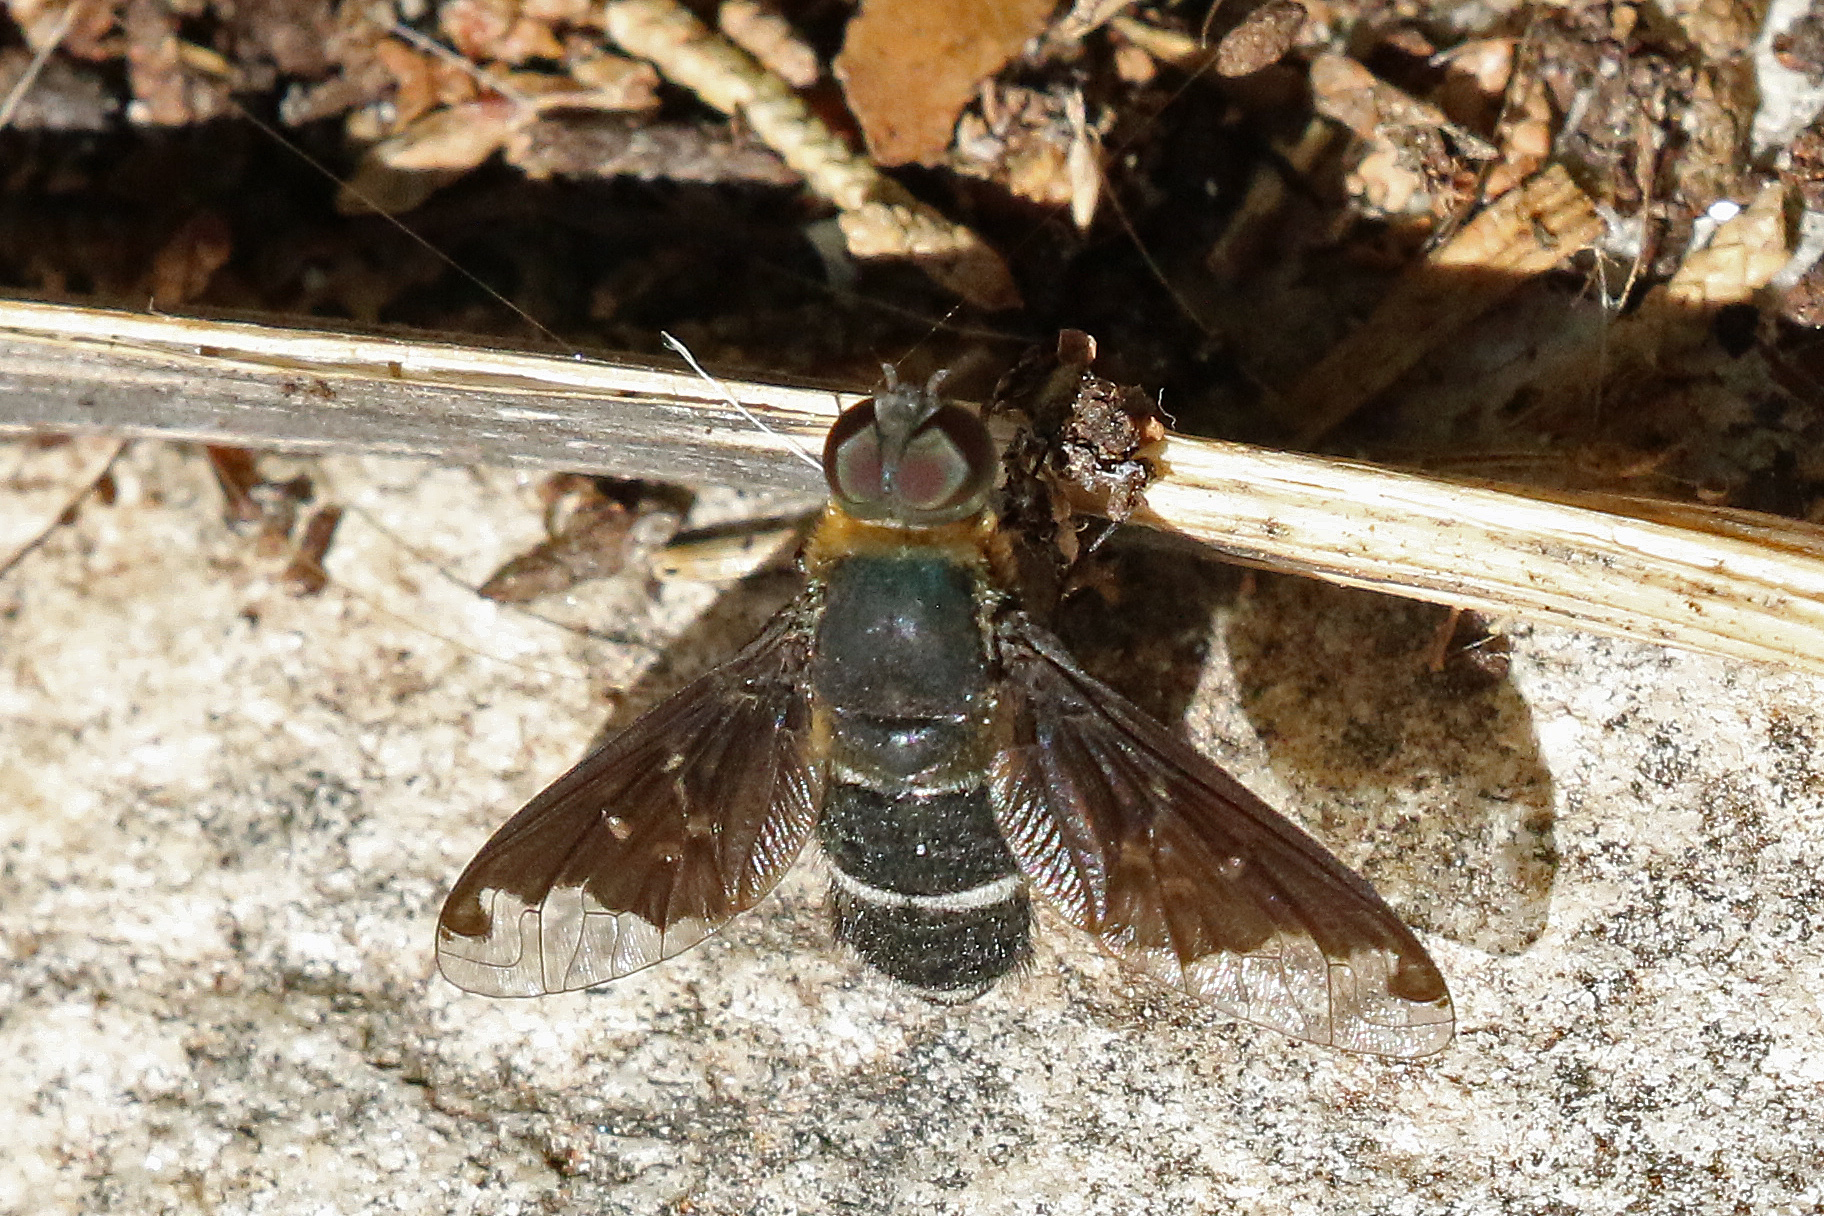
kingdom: Animalia
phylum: Arthropoda
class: Insecta
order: Diptera
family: Bombyliidae
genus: Hemipenthes
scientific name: Hemipenthes velutina
